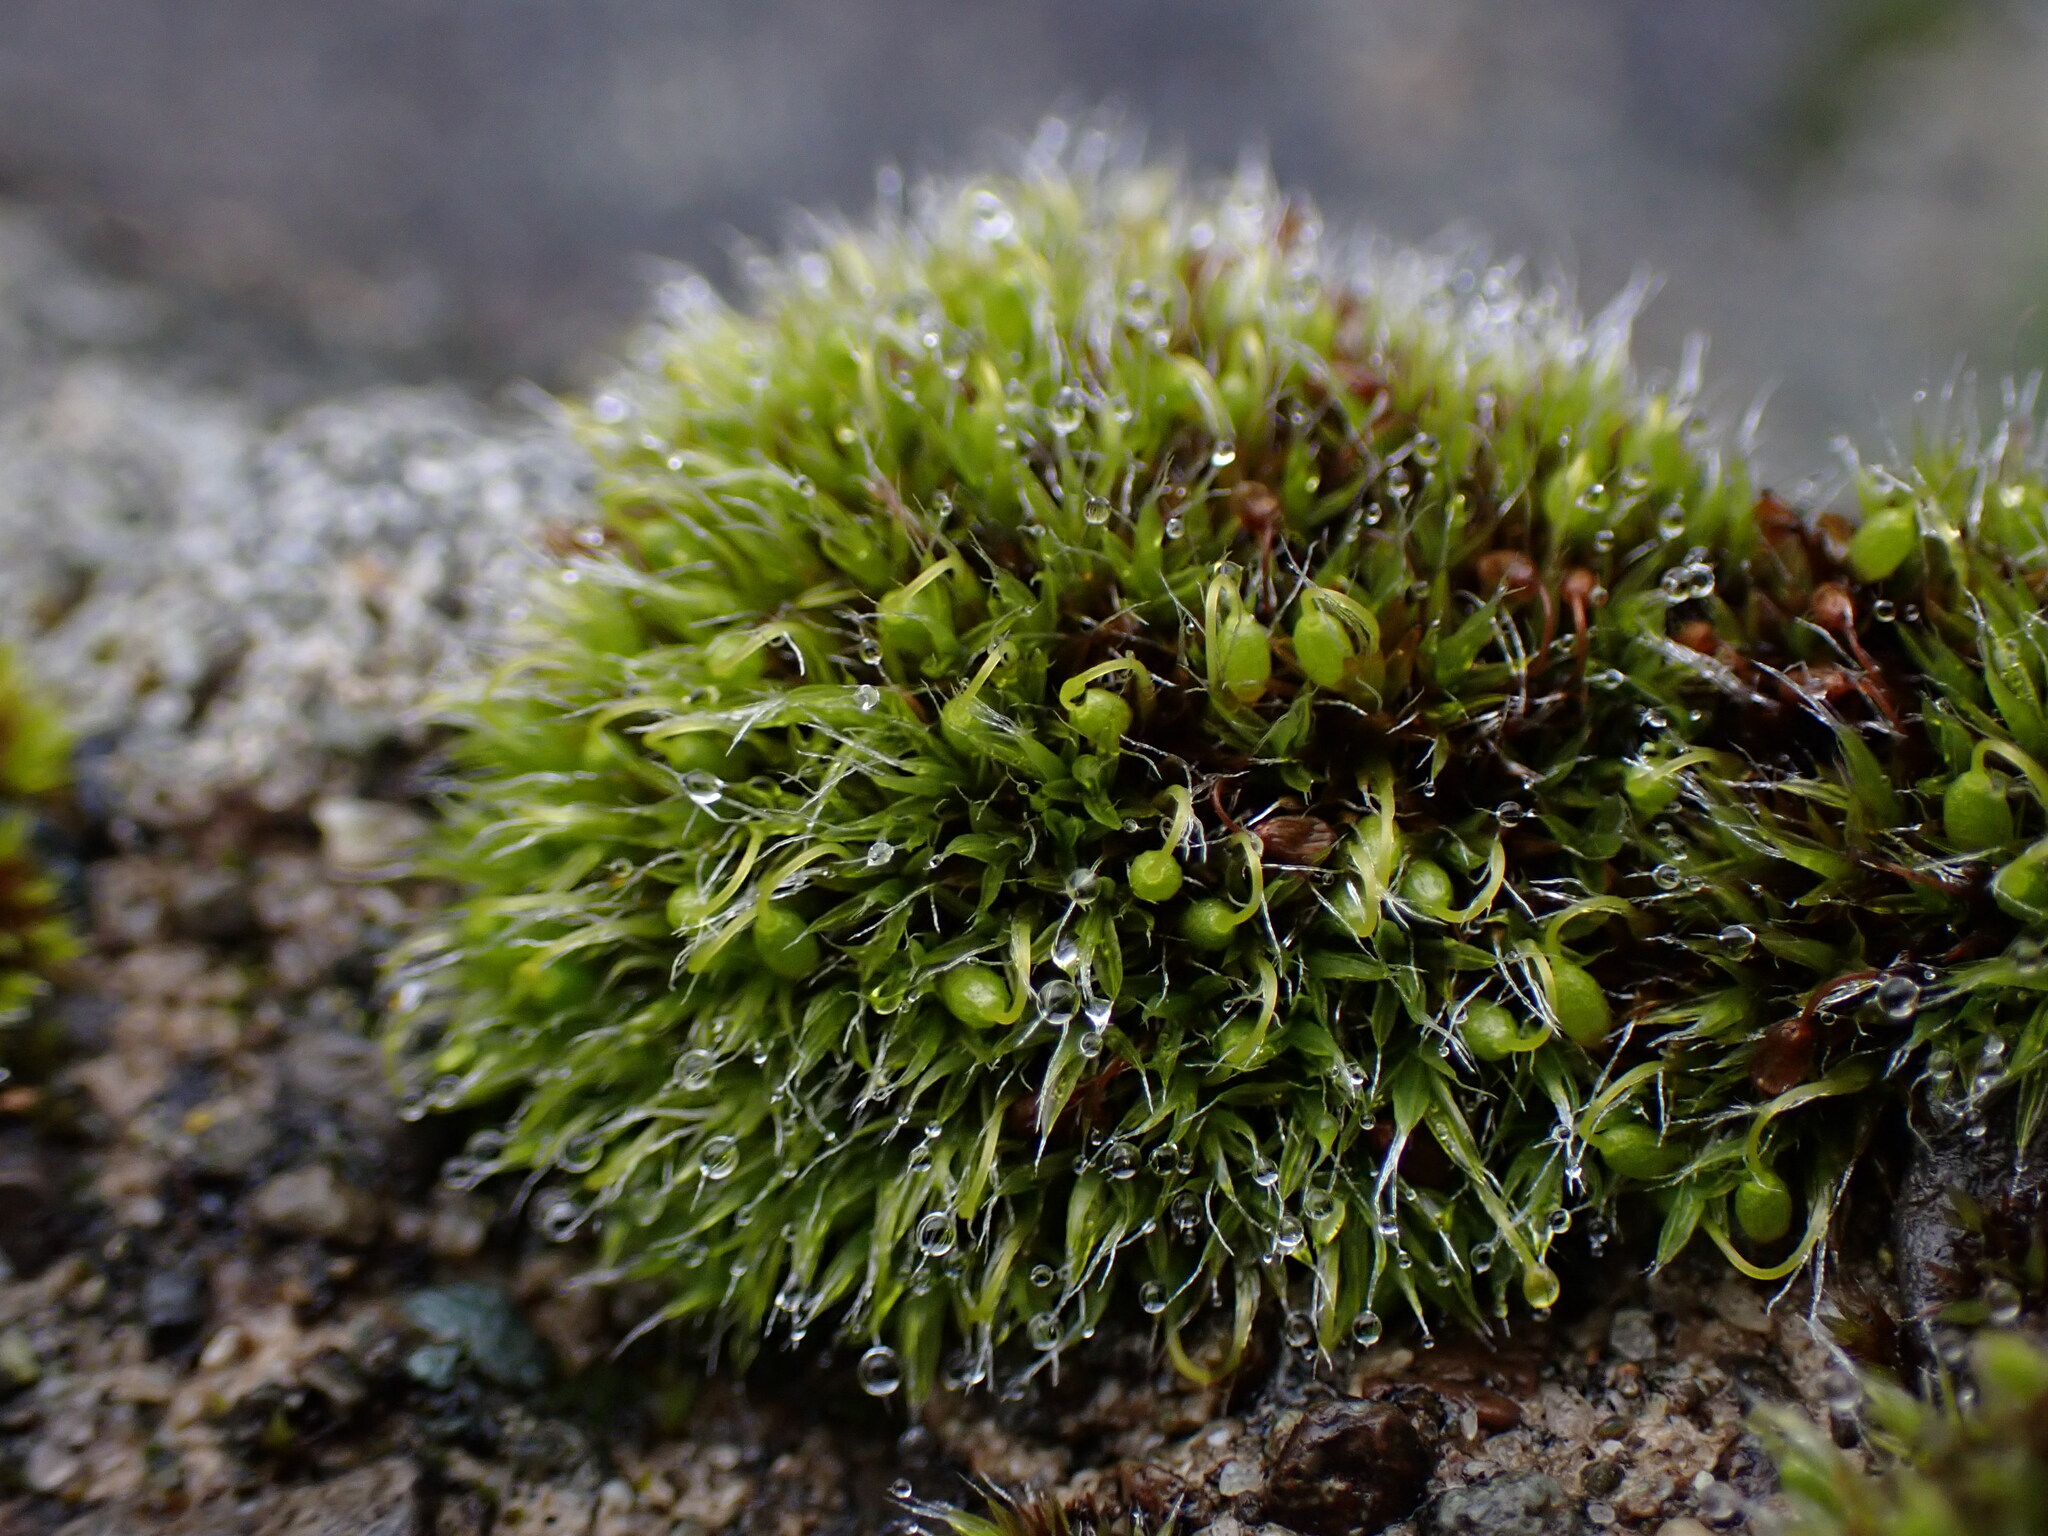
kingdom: Plantae
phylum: Bryophyta
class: Bryopsida
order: Grimmiales
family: Grimmiaceae
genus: Grimmia
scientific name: Grimmia pulvinata
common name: Grey-cushioned grimmia
